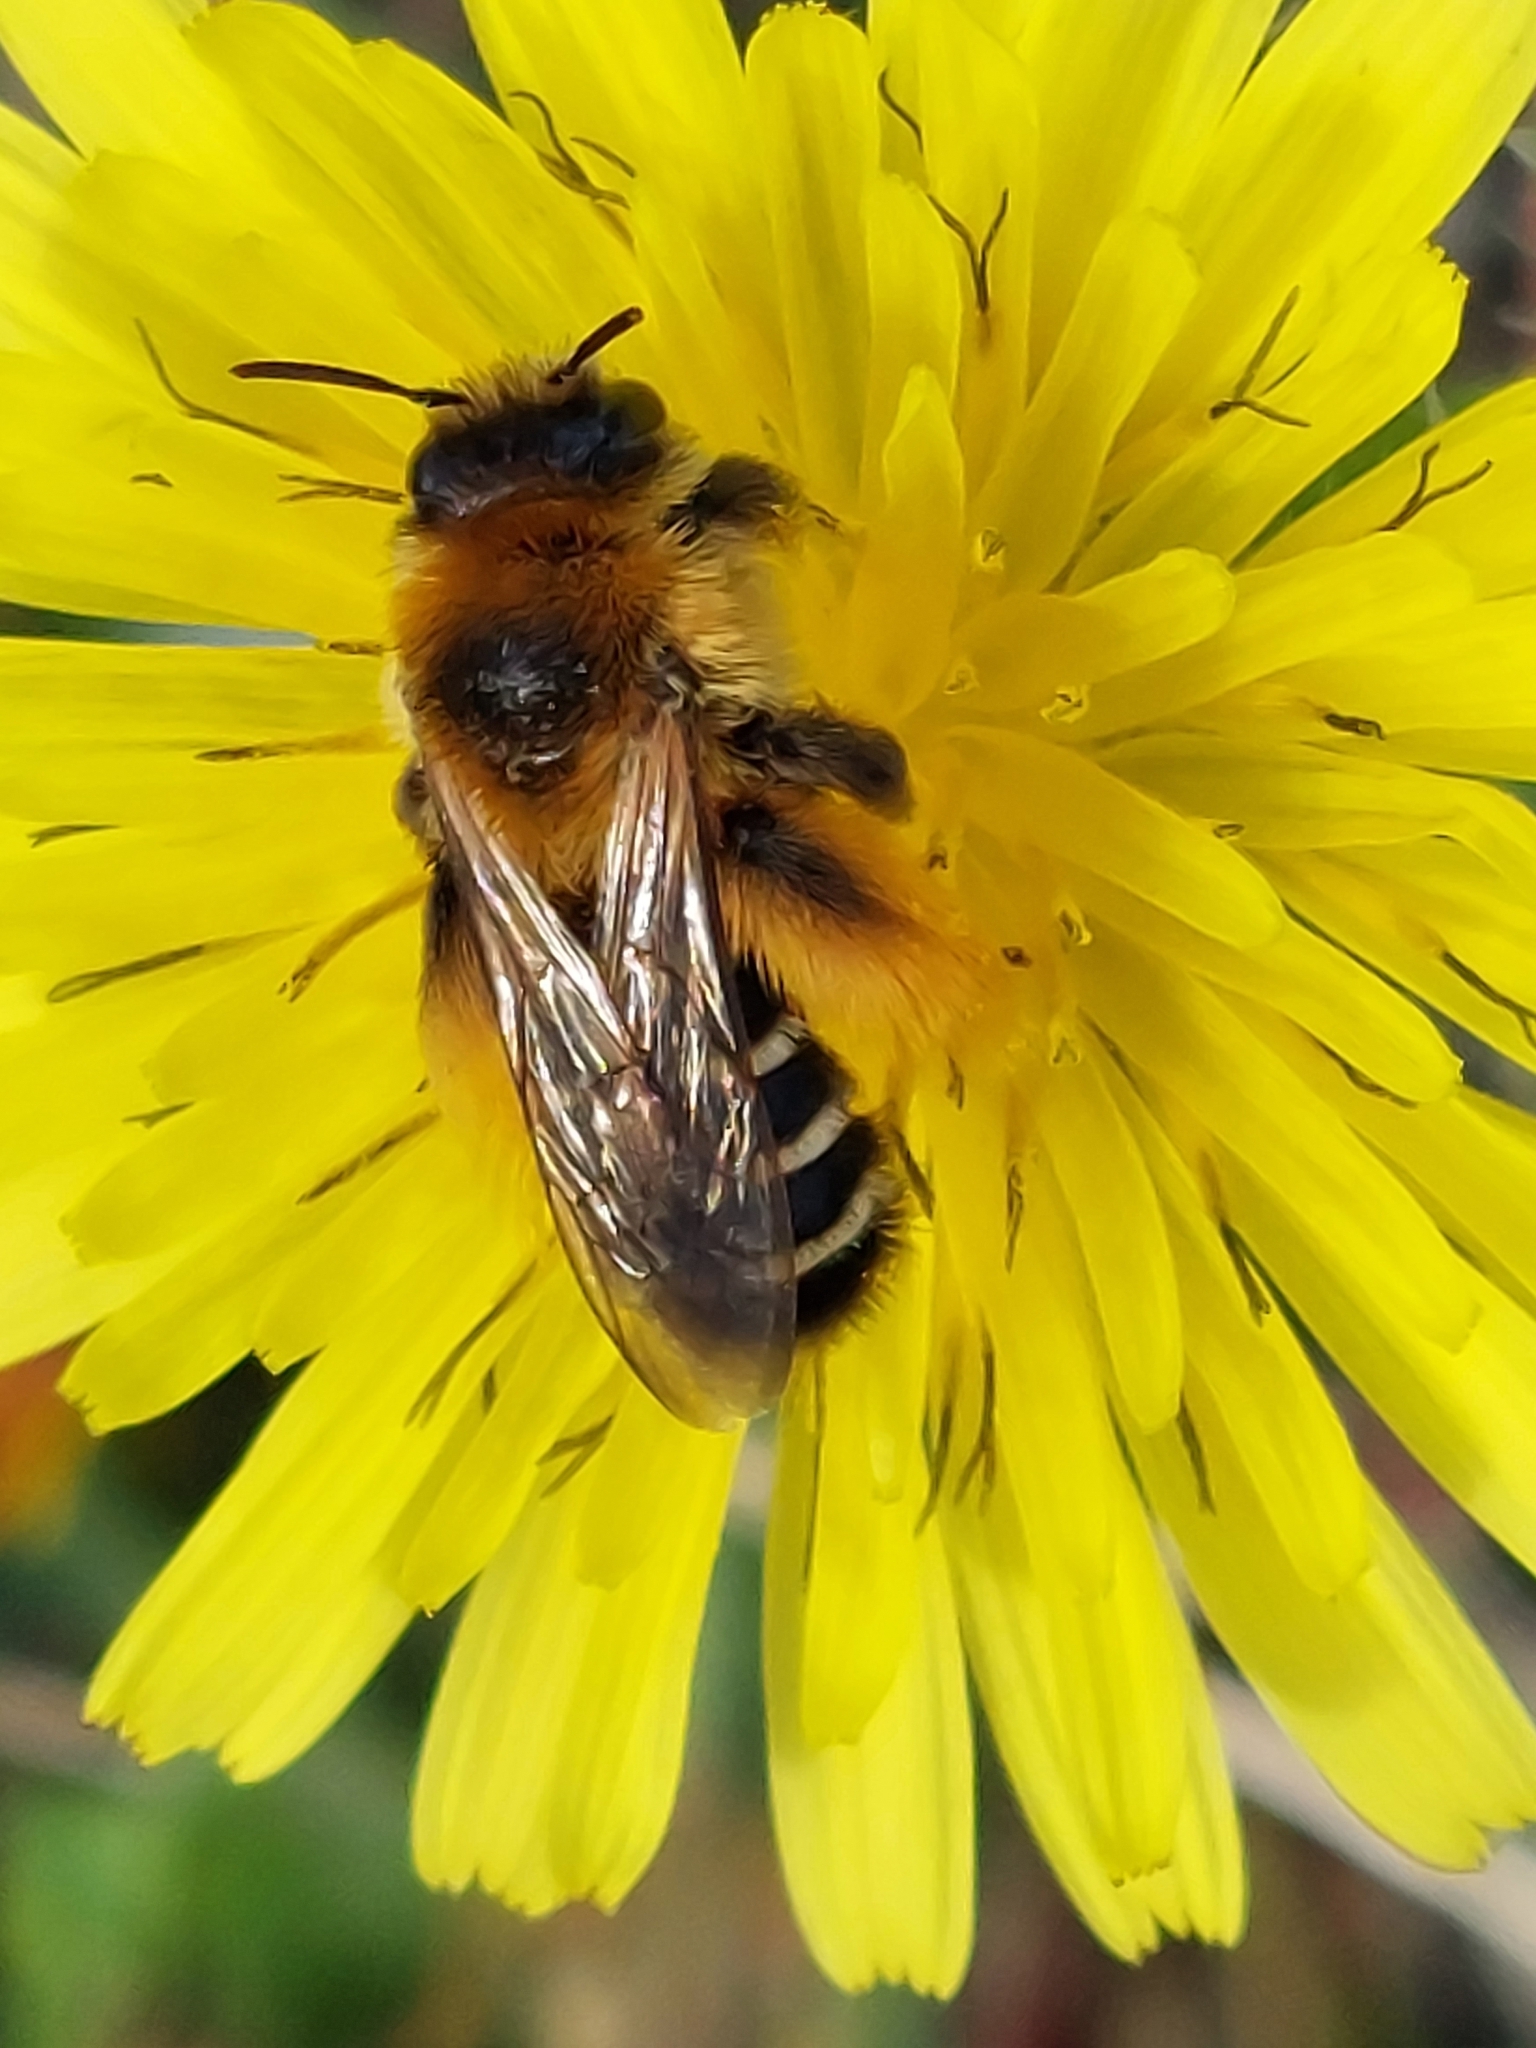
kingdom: Animalia
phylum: Arthropoda
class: Insecta
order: Hymenoptera
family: Melittidae
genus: Dasypoda
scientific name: Dasypoda hirtipes
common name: Pantaloon bee
